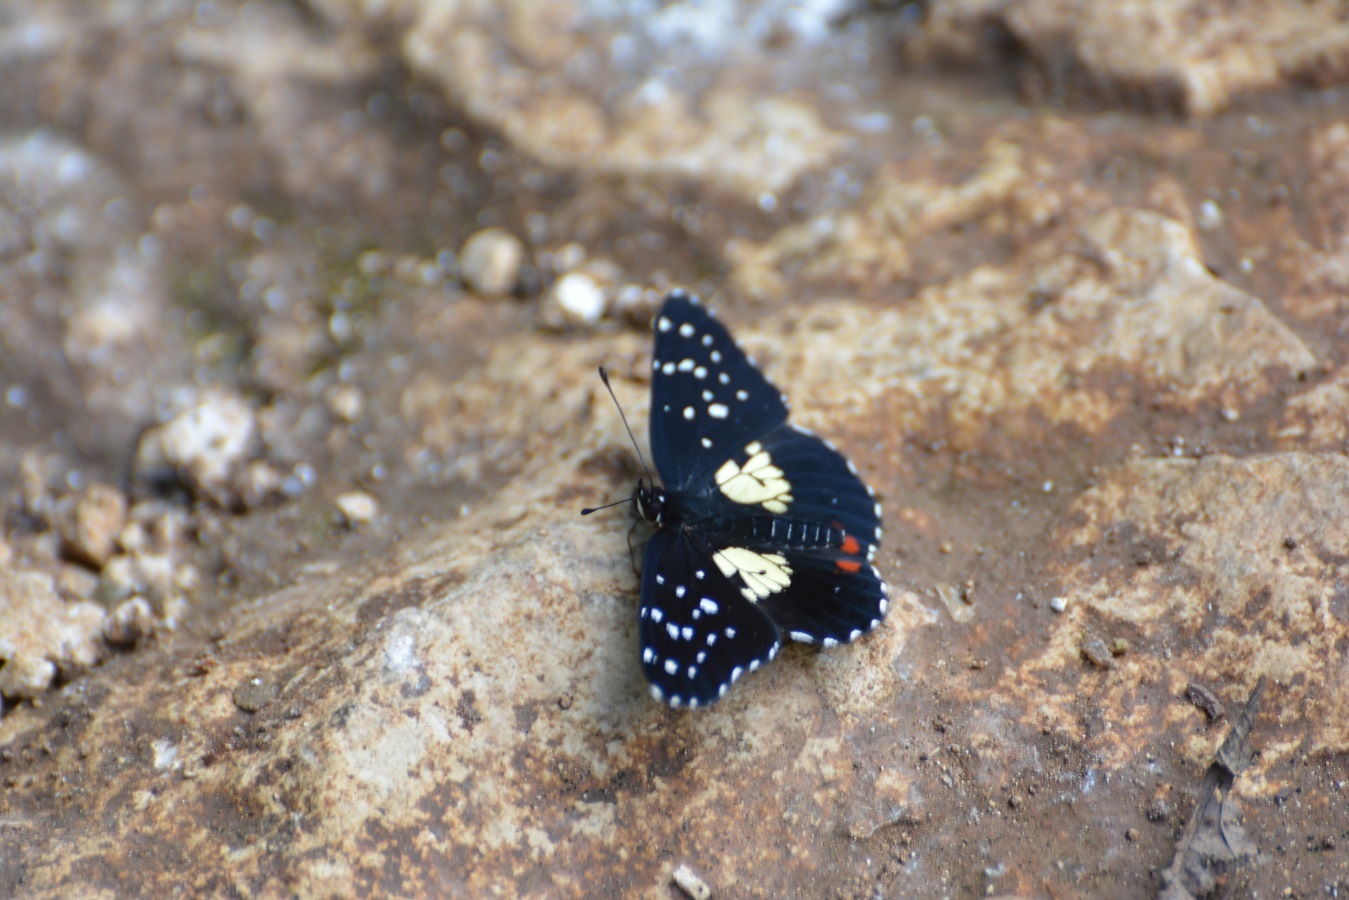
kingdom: Animalia
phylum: Arthropoda
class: Insecta
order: Lepidoptera
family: Nymphalidae
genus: Chlosyne
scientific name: Chlosyne erodyle
